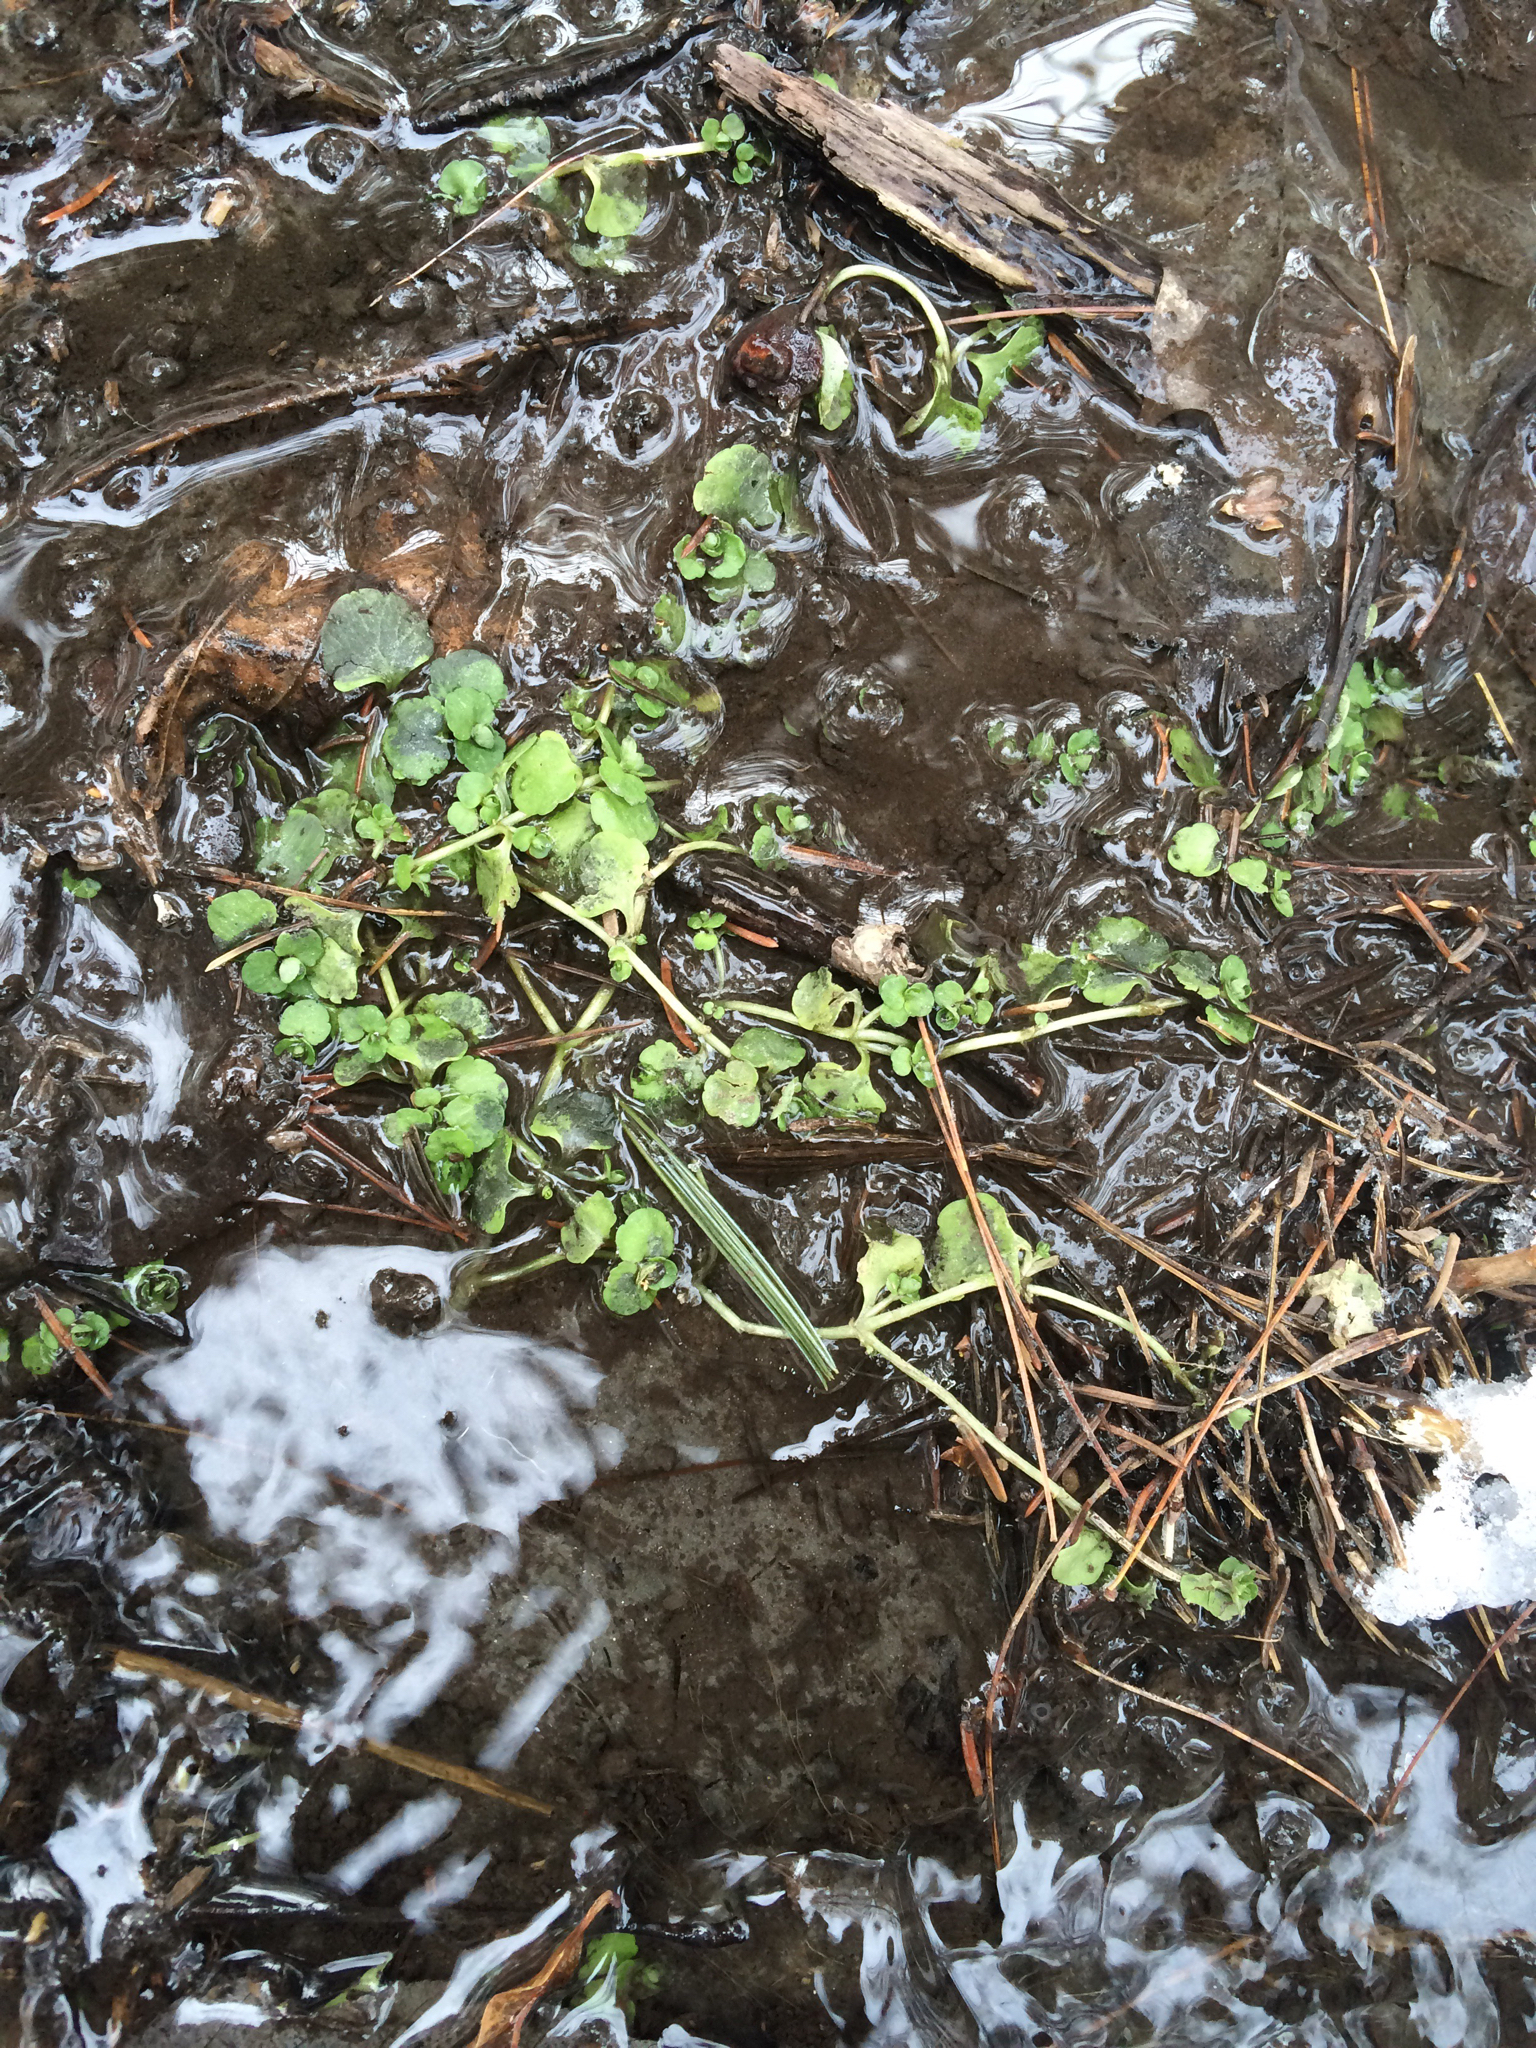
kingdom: Plantae
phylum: Tracheophyta
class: Magnoliopsida
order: Saxifragales
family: Saxifragaceae
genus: Chrysosplenium
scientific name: Chrysosplenium americanum
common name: American golden-saxifrage
